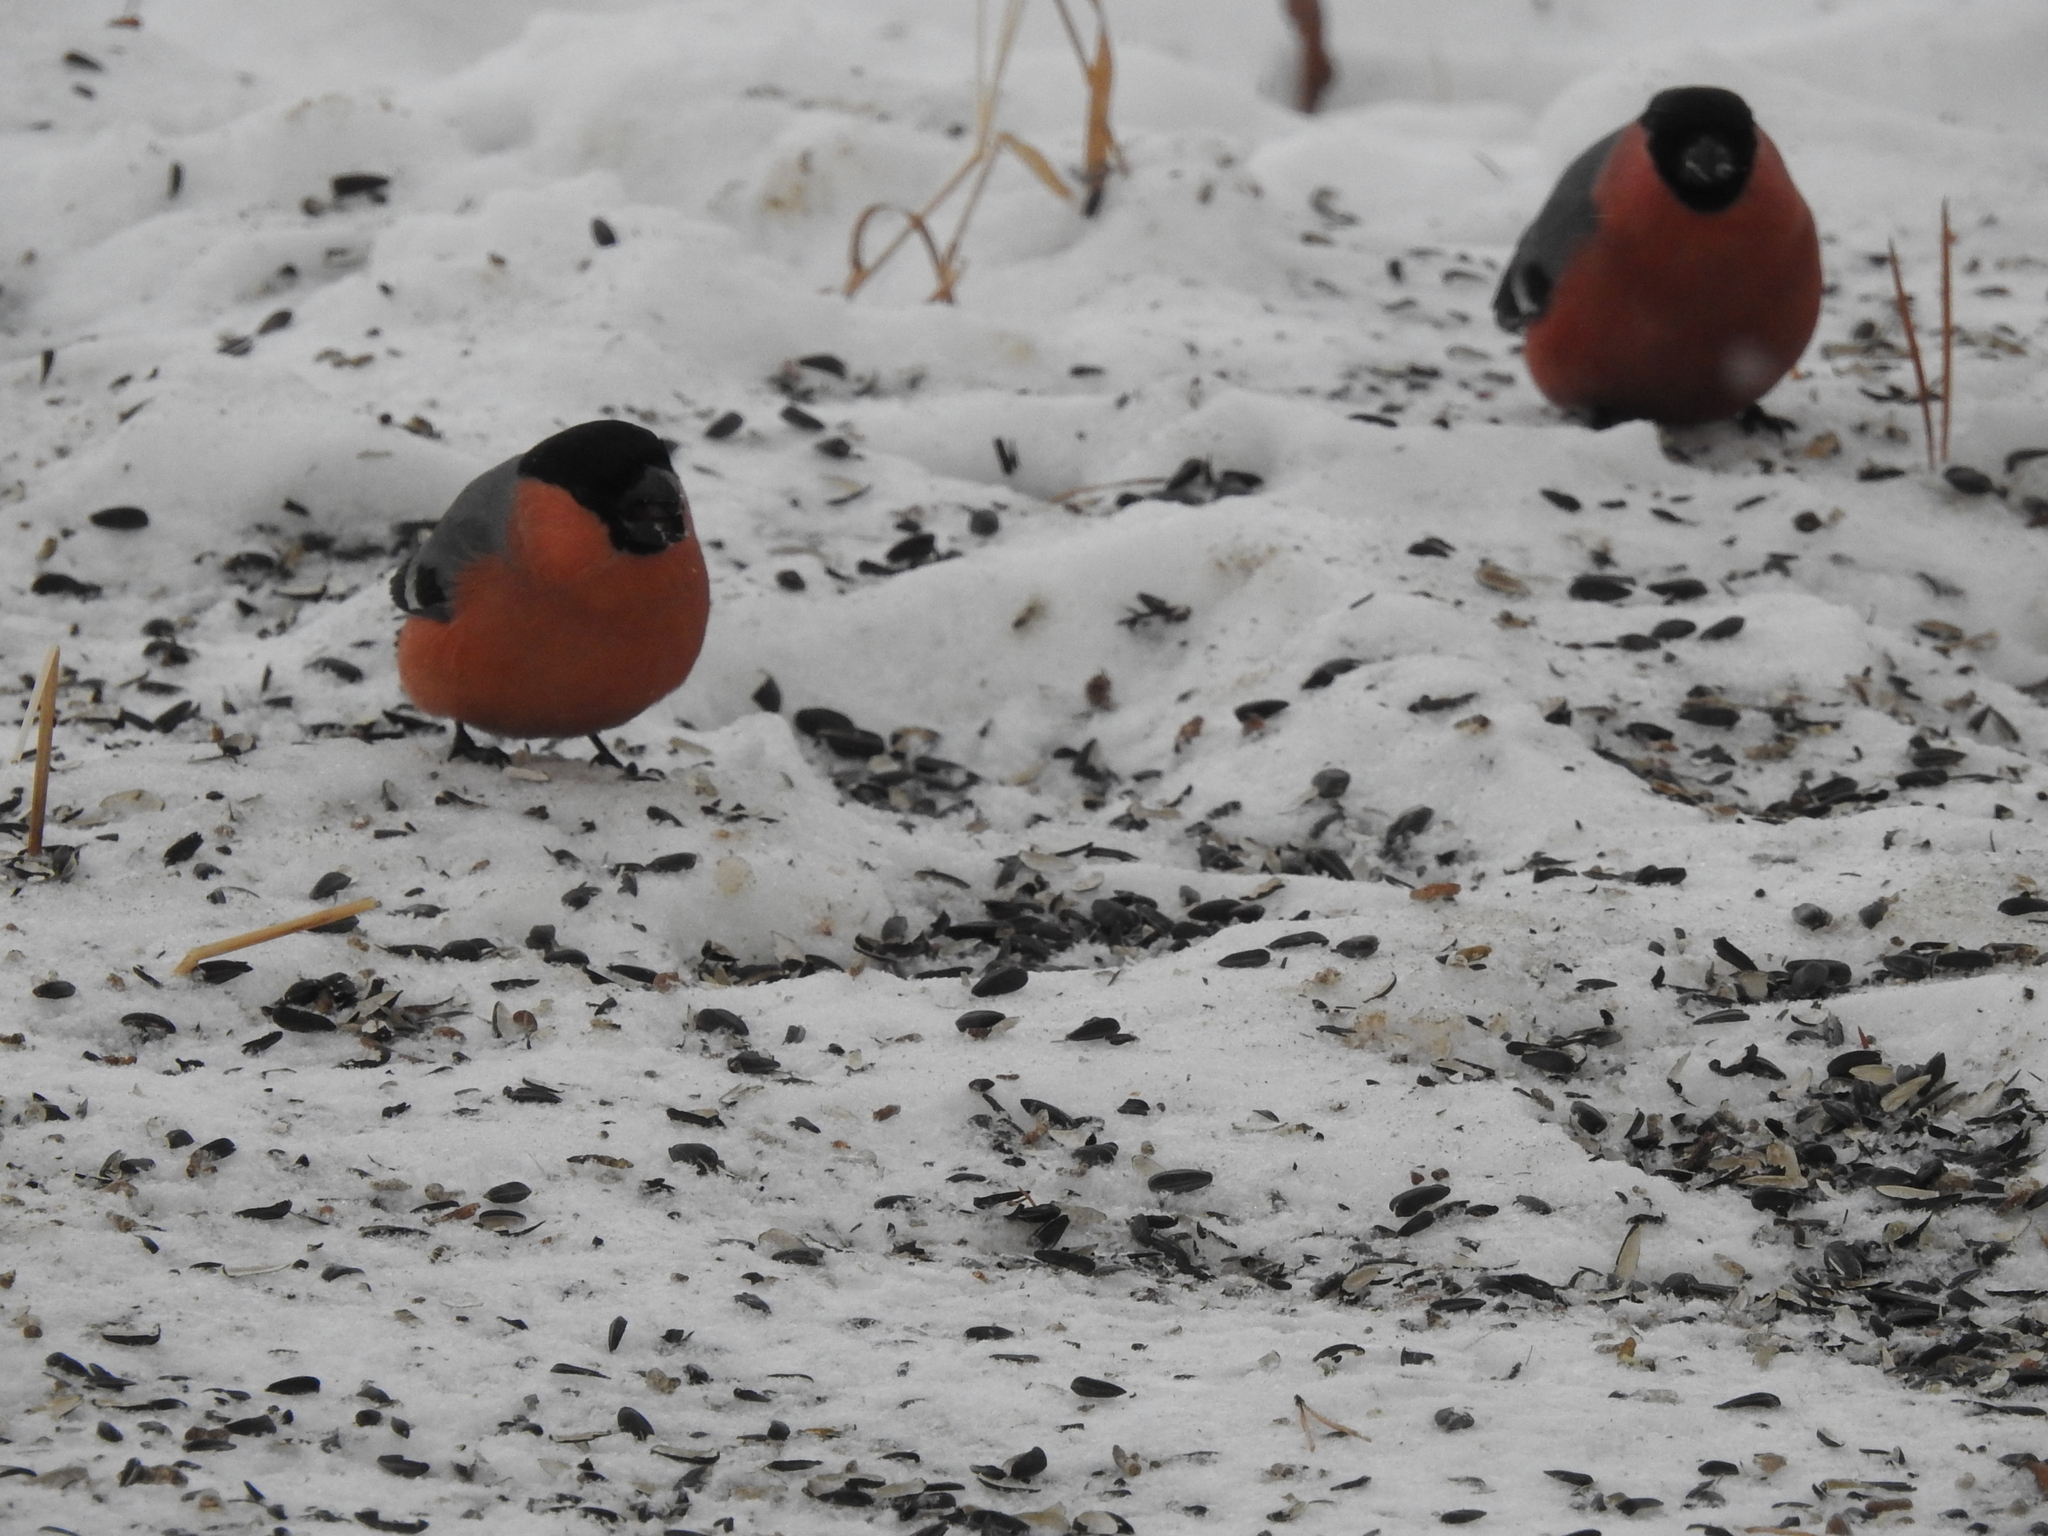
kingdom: Animalia
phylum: Chordata
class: Aves
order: Passeriformes
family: Fringillidae
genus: Pyrrhula
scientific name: Pyrrhula pyrrhula
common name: Eurasian bullfinch
